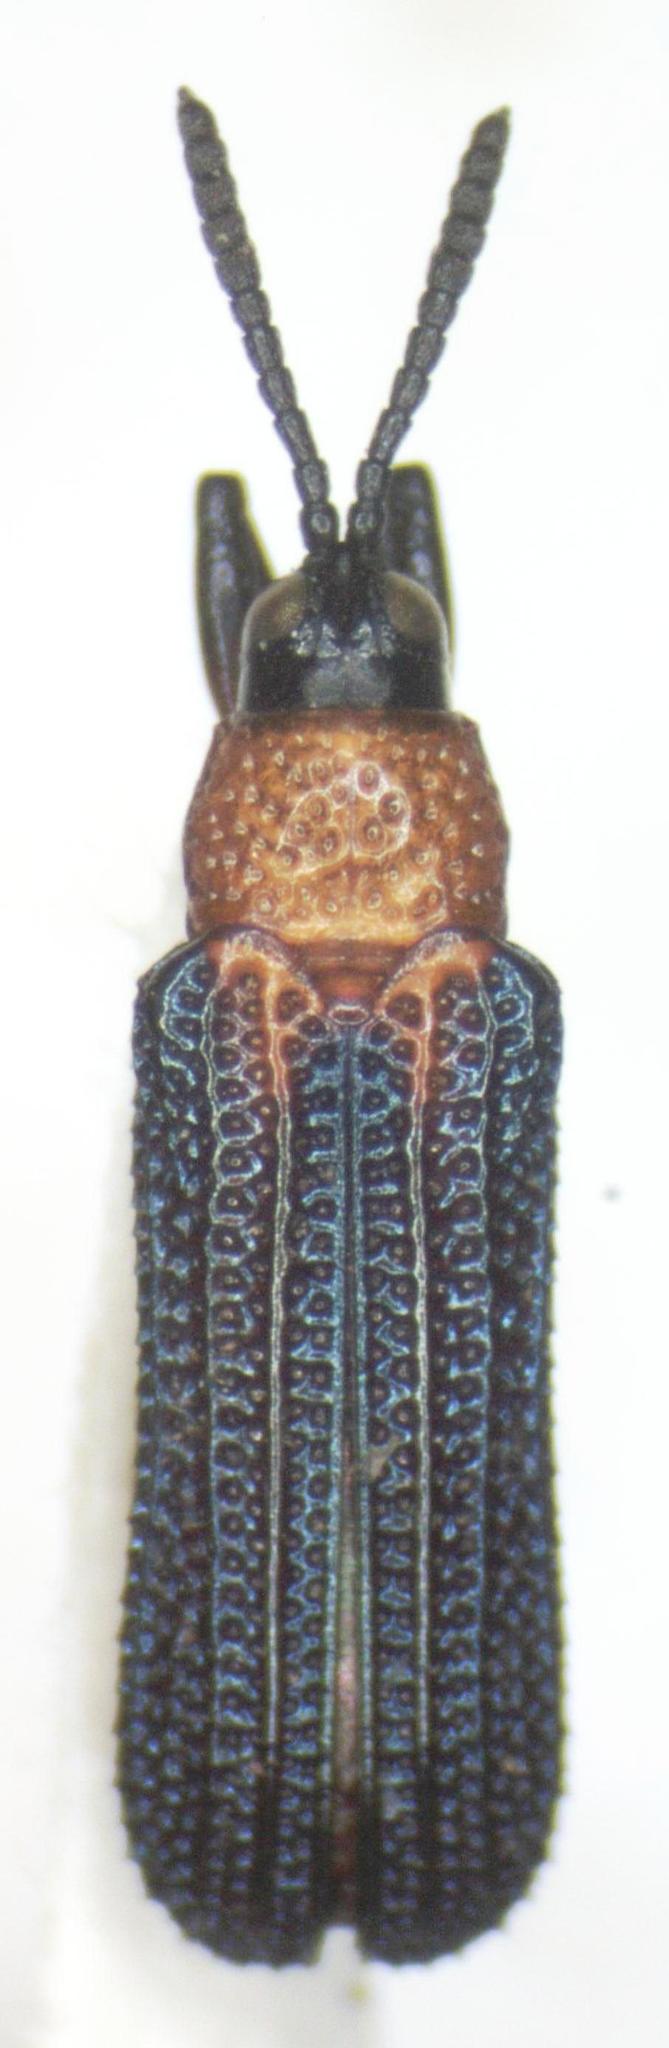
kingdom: Animalia
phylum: Arthropoda
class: Insecta
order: Coleoptera
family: Chrysomelidae
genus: Chalepus
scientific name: Chalepus bellulus
